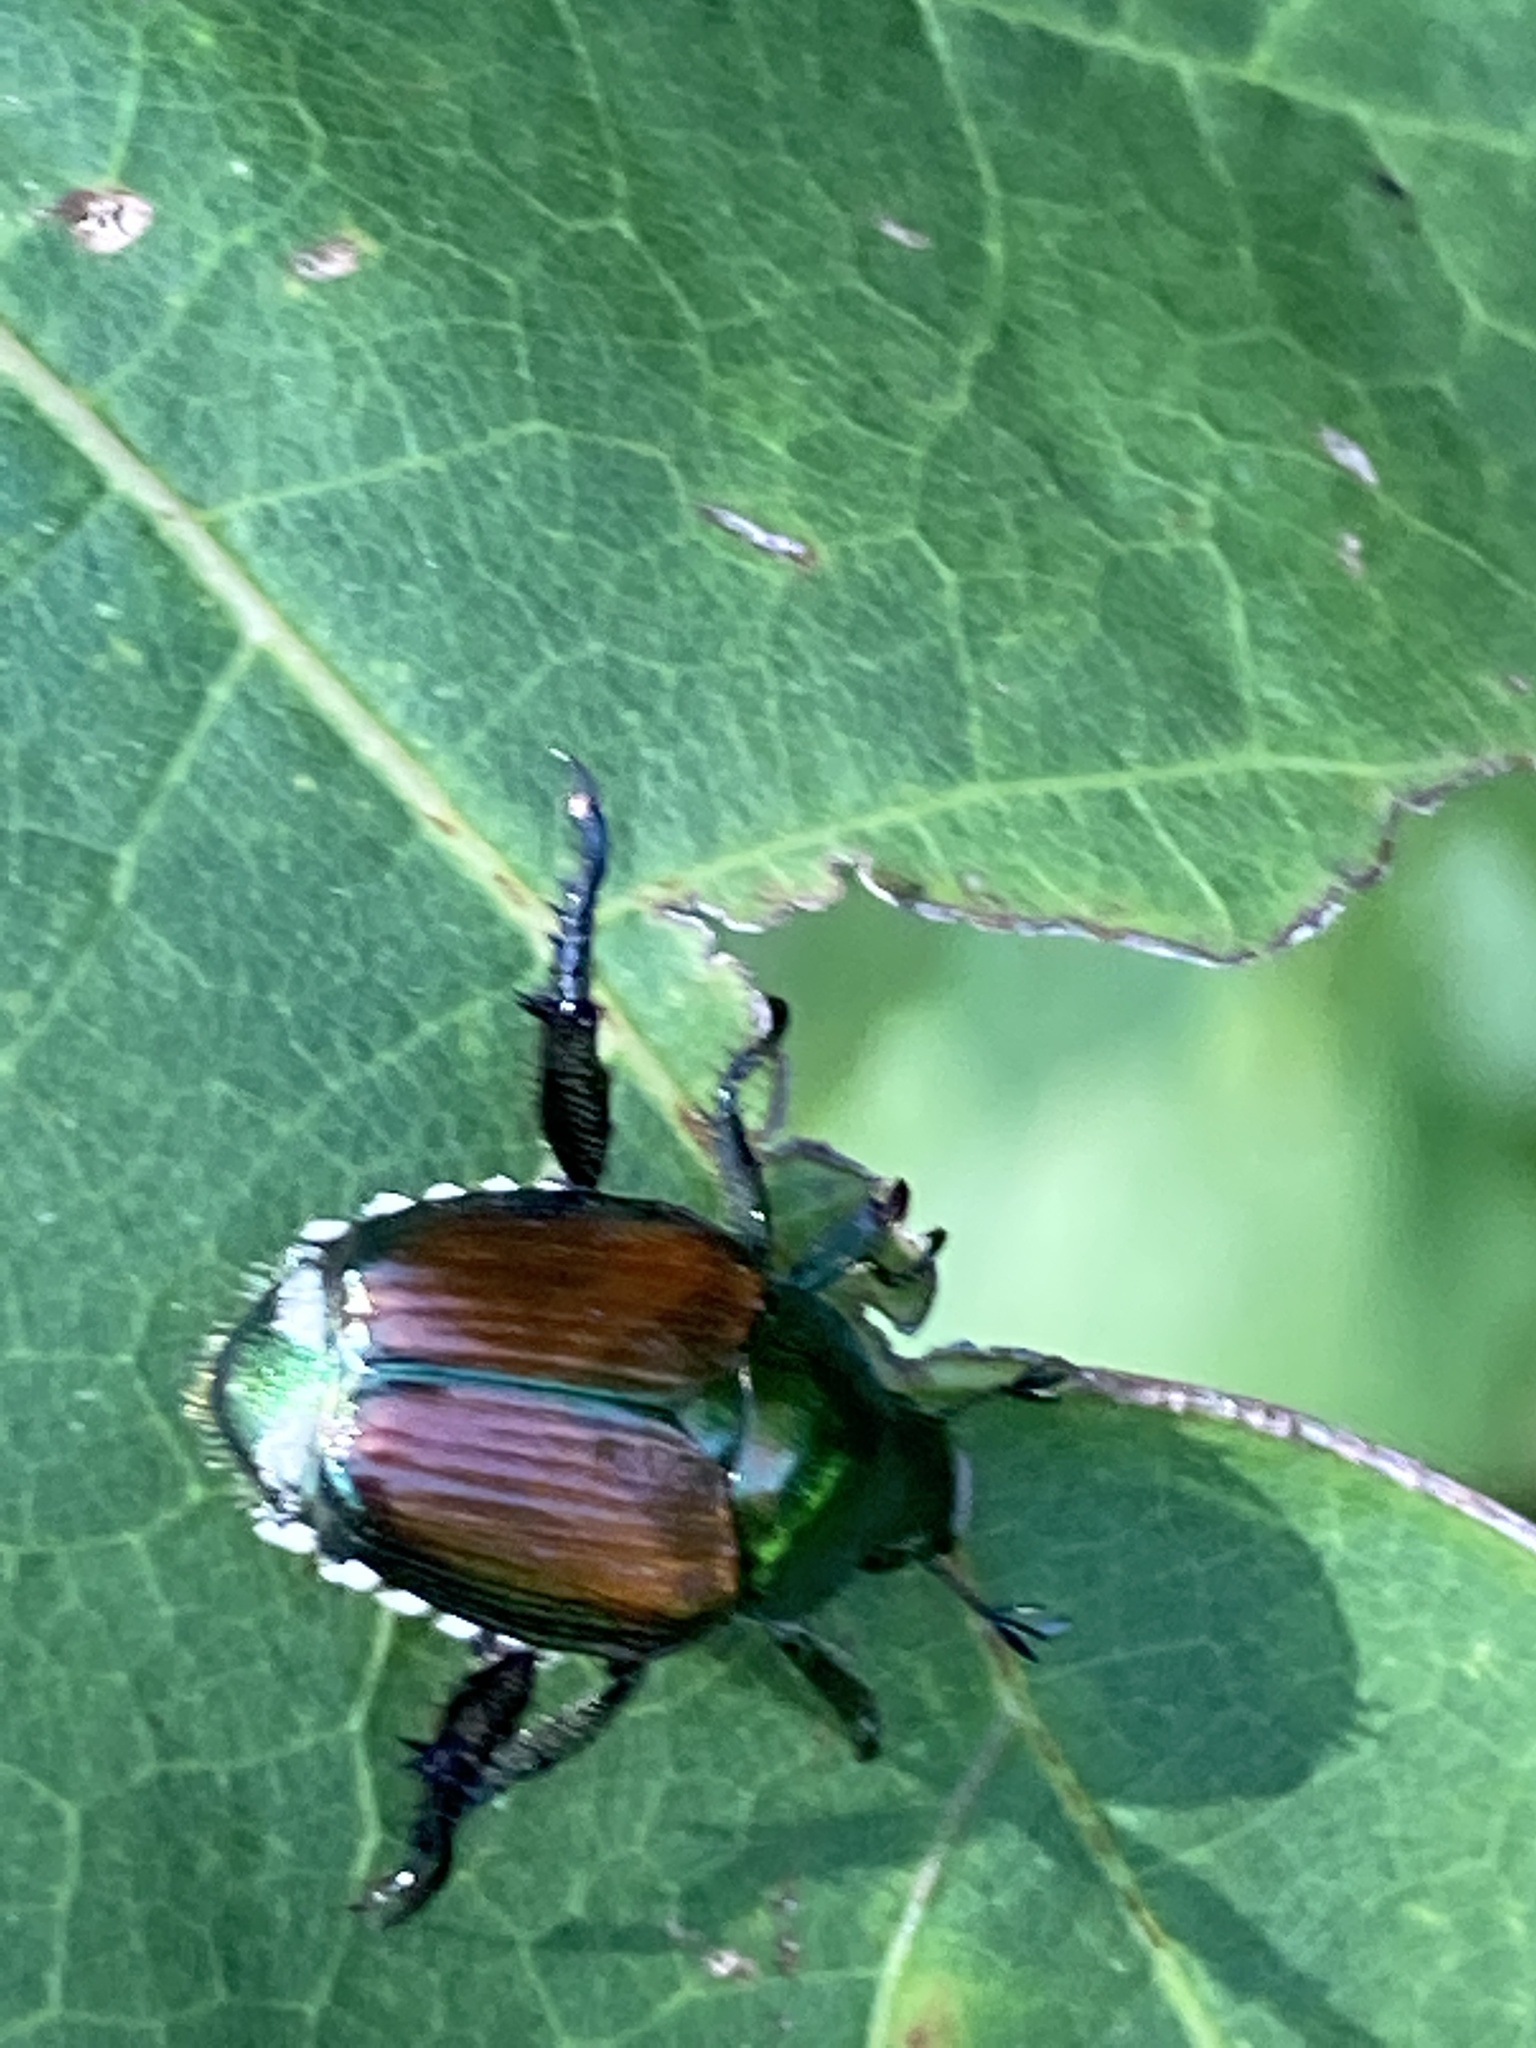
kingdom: Animalia
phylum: Arthropoda
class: Insecta
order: Coleoptera
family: Scarabaeidae
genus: Popillia
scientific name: Popillia japonica
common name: Japanese beetle
